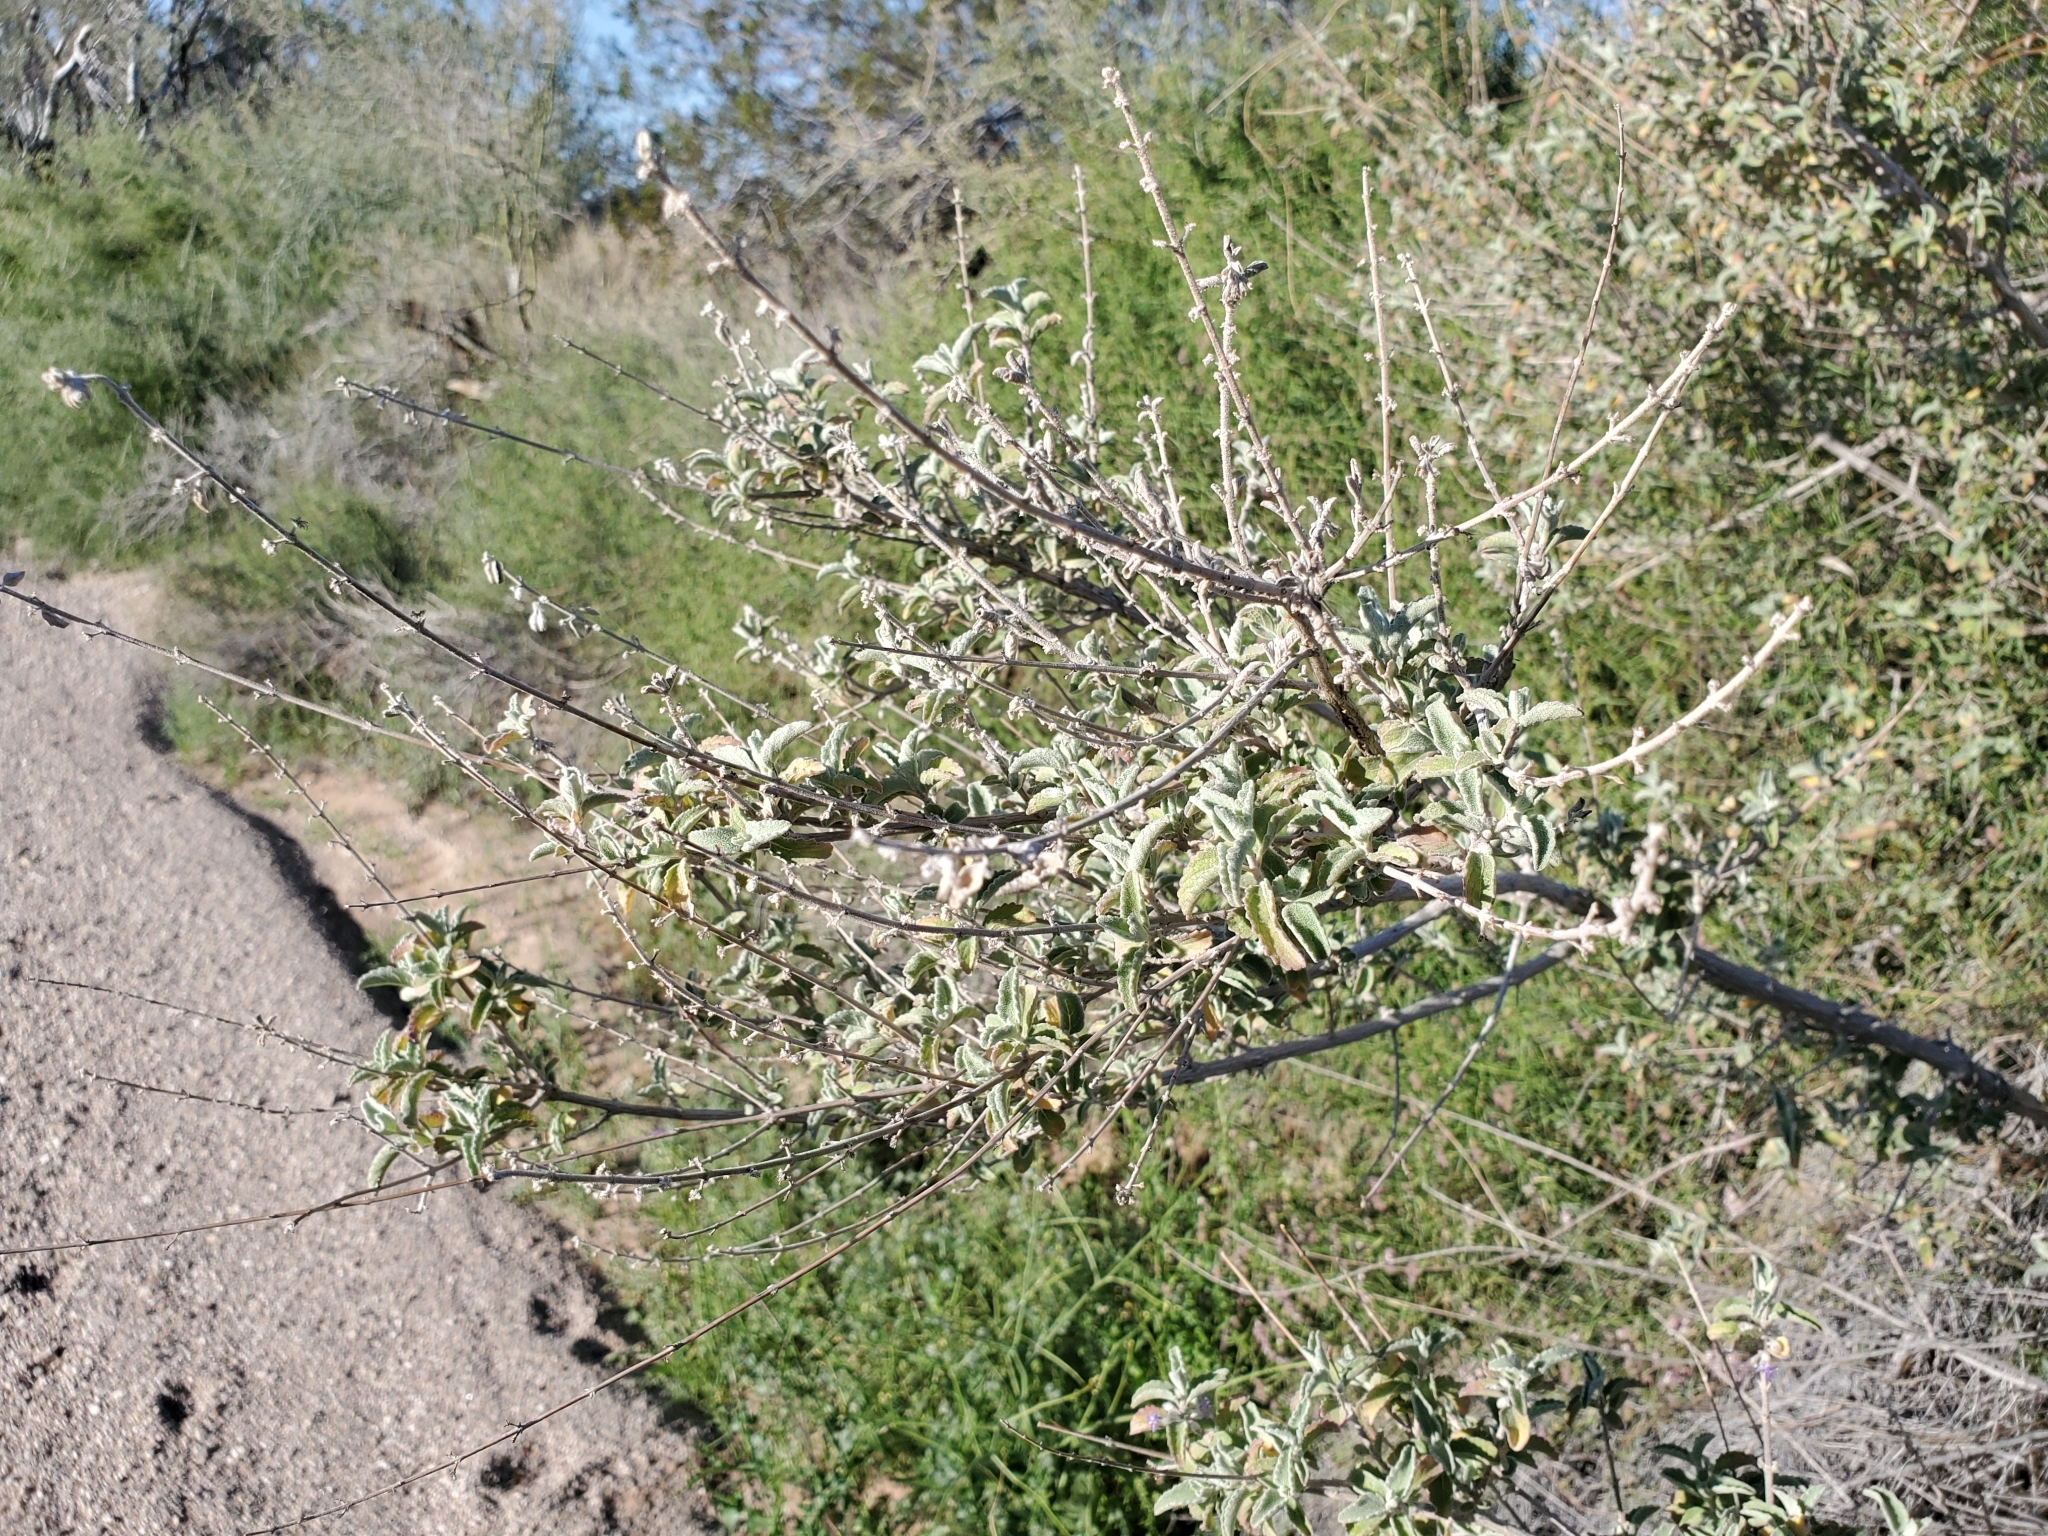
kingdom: Plantae
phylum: Tracheophyta
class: Magnoliopsida
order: Lamiales
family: Lamiaceae
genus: Condea
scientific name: Condea emoryi
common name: Chia
